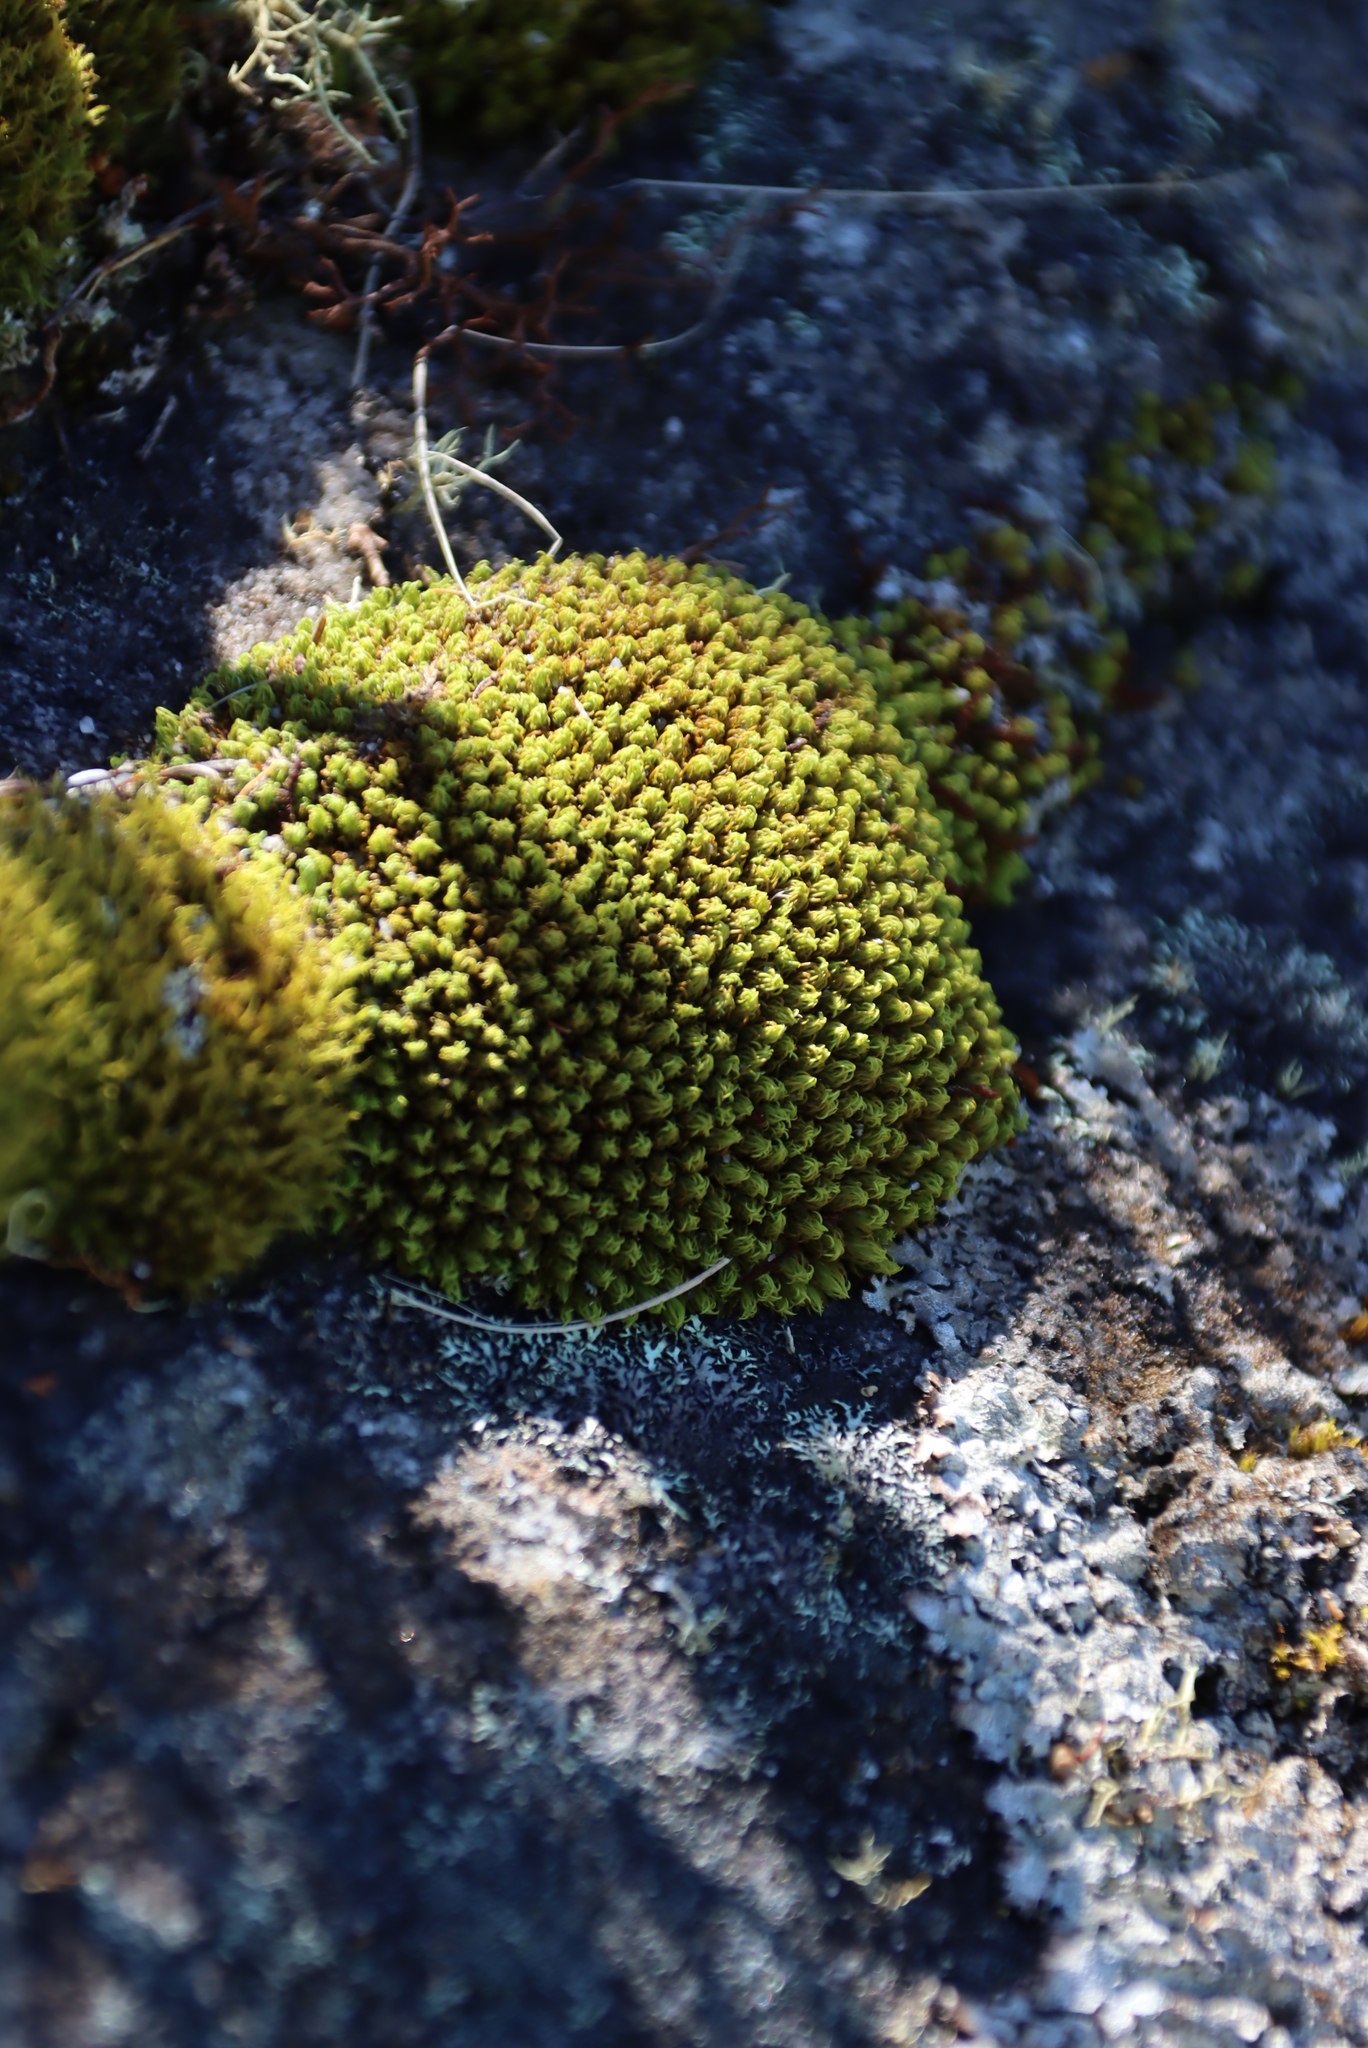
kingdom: Plantae
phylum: Bryophyta
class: Bryopsida
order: Dicranales
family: Hypodontiaceae
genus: Hypodontium
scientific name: Hypodontium pomiforme
